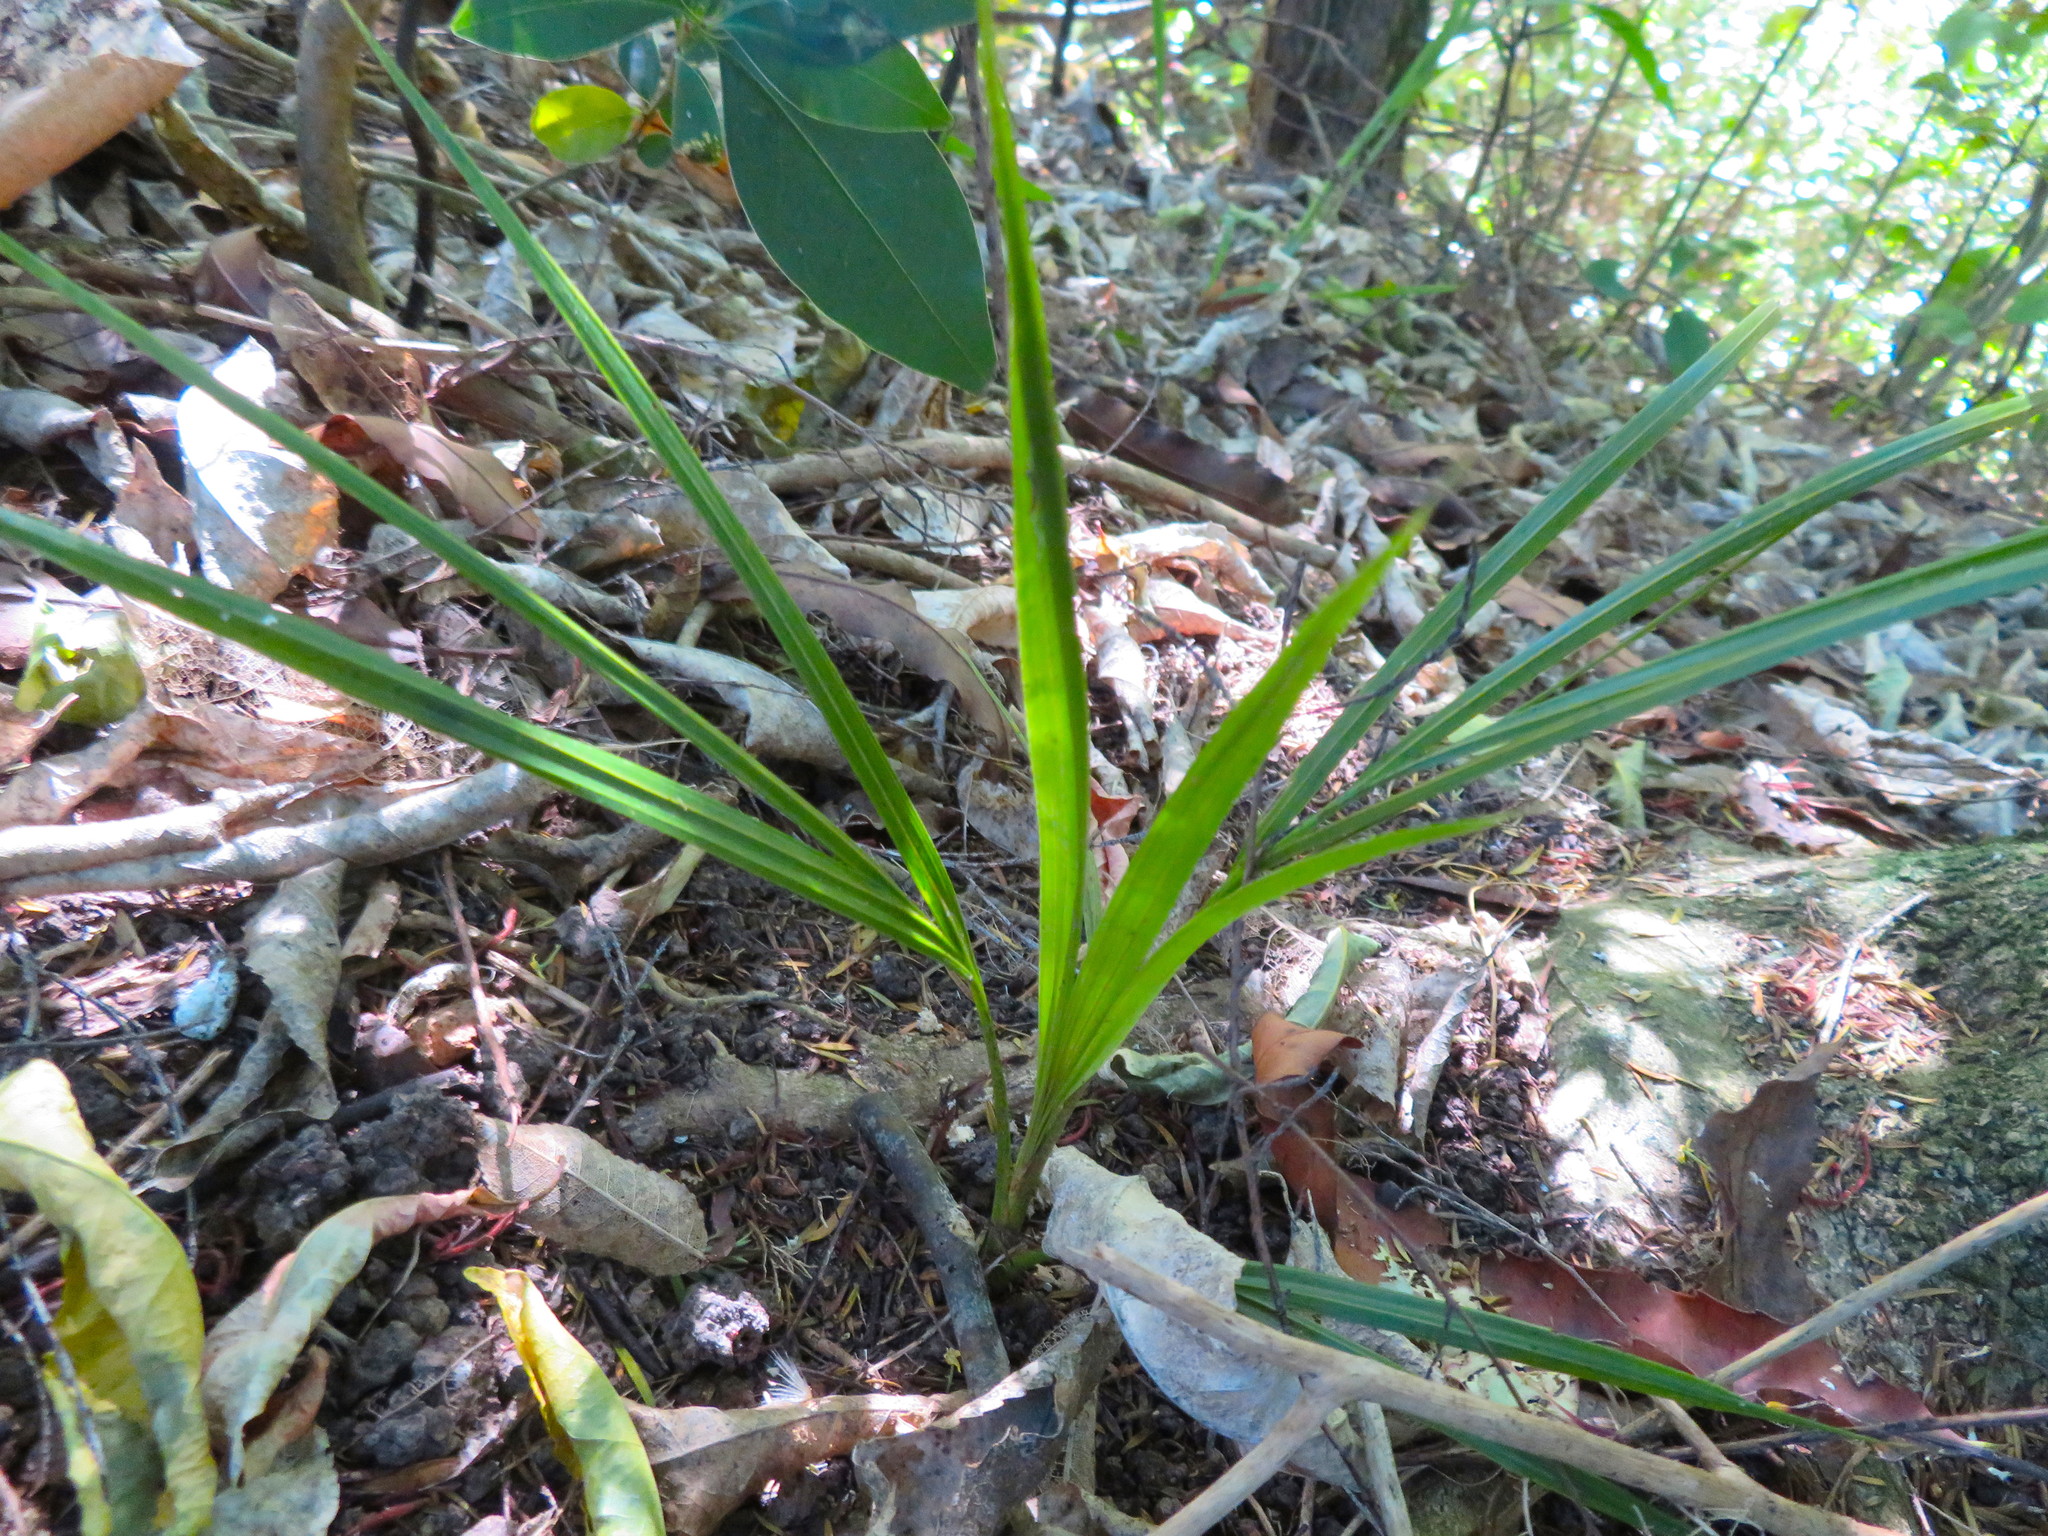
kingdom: Plantae
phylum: Tracheophyta
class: Liliopsida
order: Arecales
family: Arecaceae
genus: Rhopalostylis
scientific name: Rhopalostylis sapida
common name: Feather-duster palm
